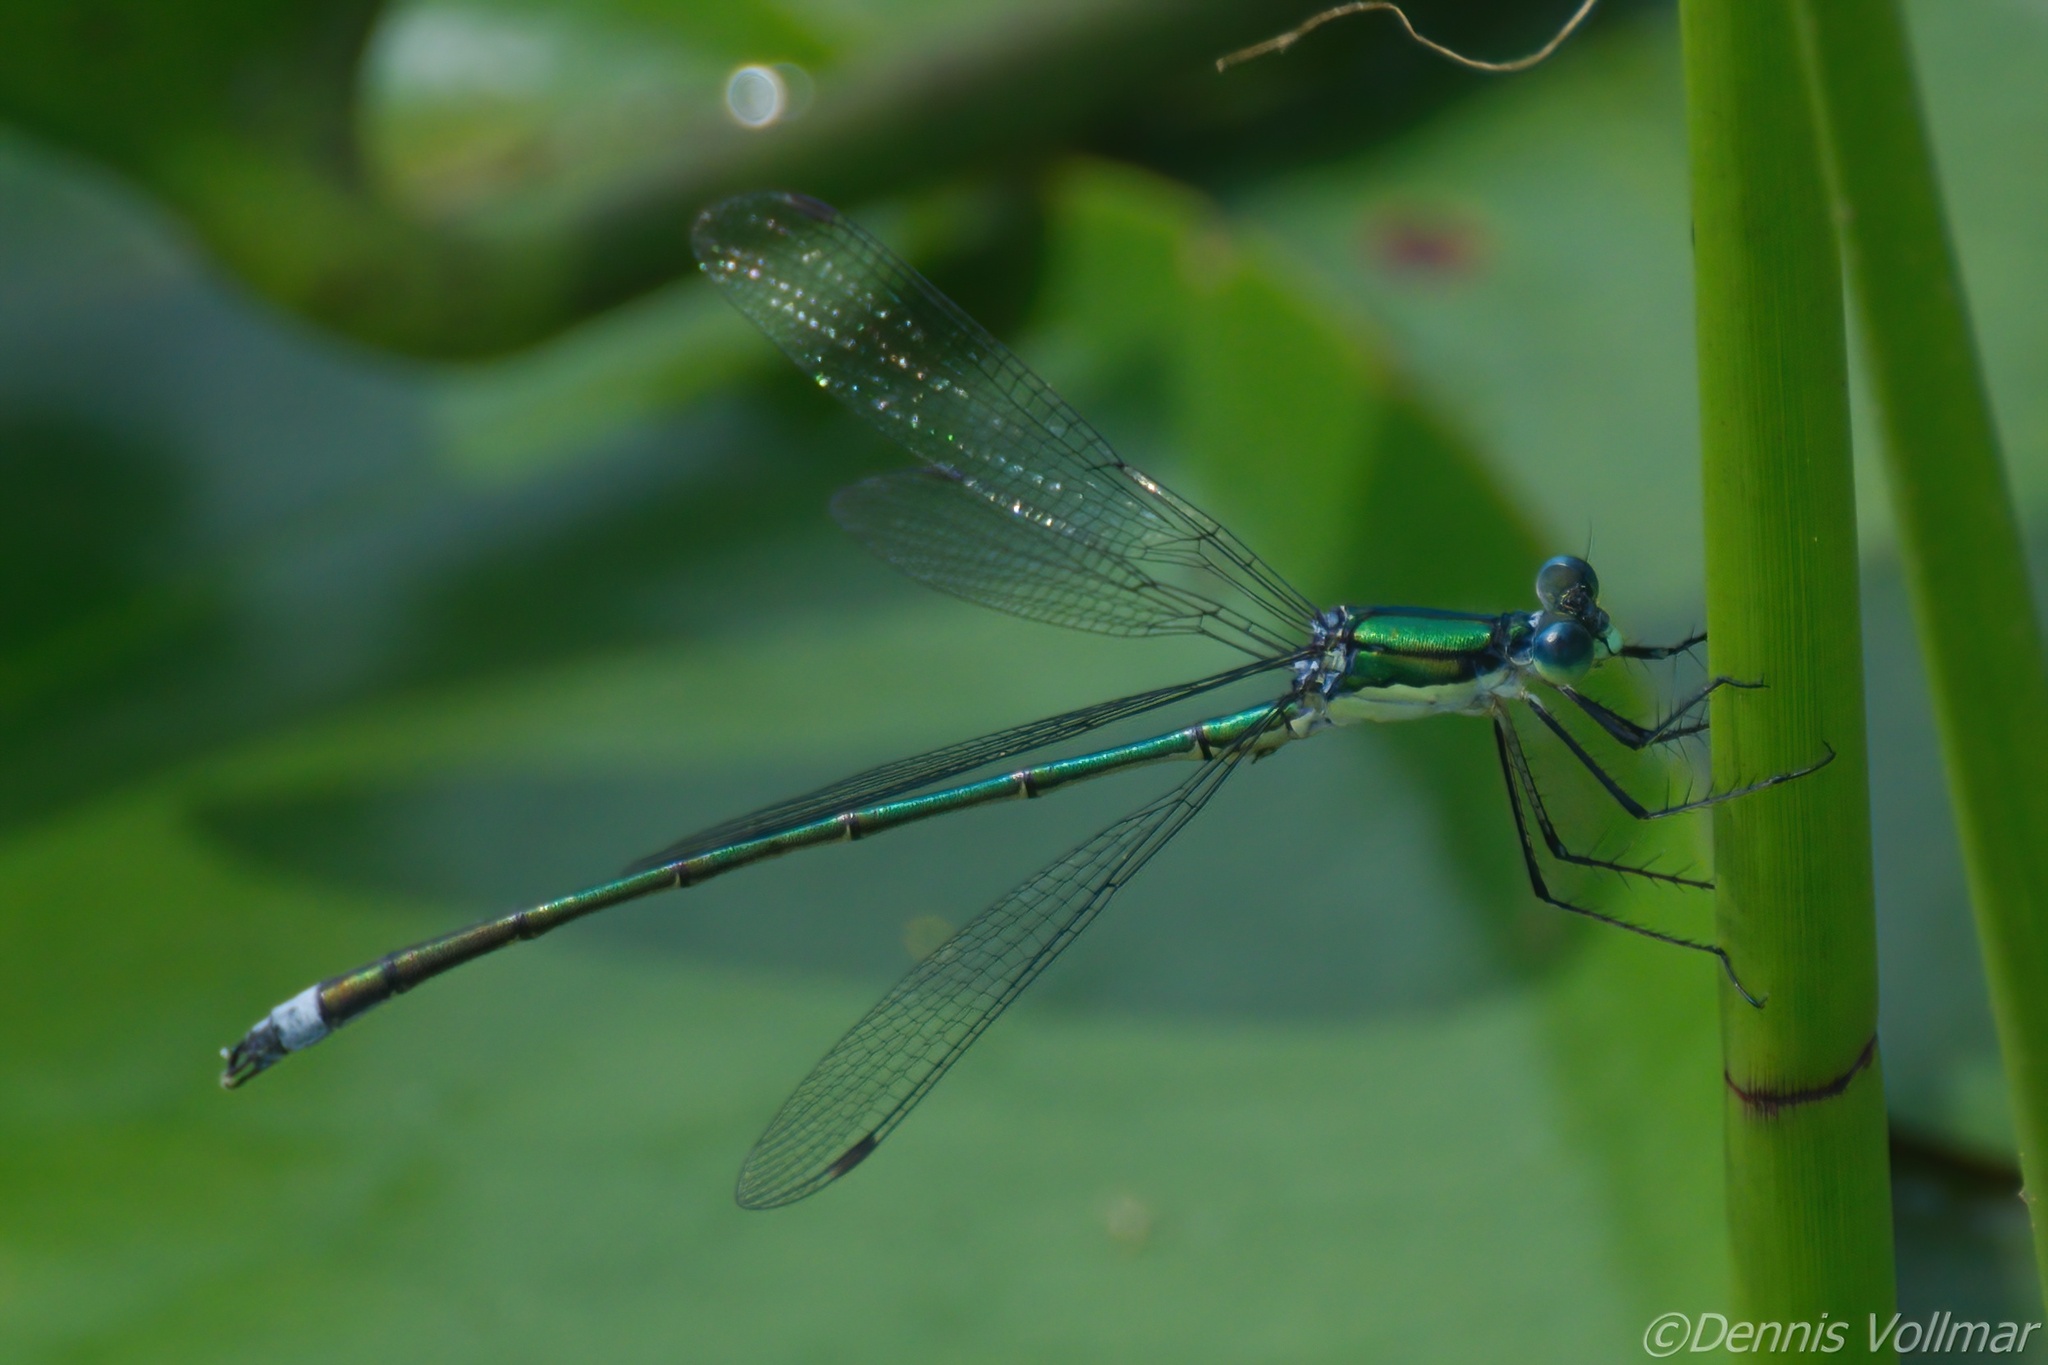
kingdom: Animalia
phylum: Arthropoda
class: Insecta
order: Odonata
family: Lestidae
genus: Lestes
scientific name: Lestes inaequalis
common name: Elegant spreadwing
